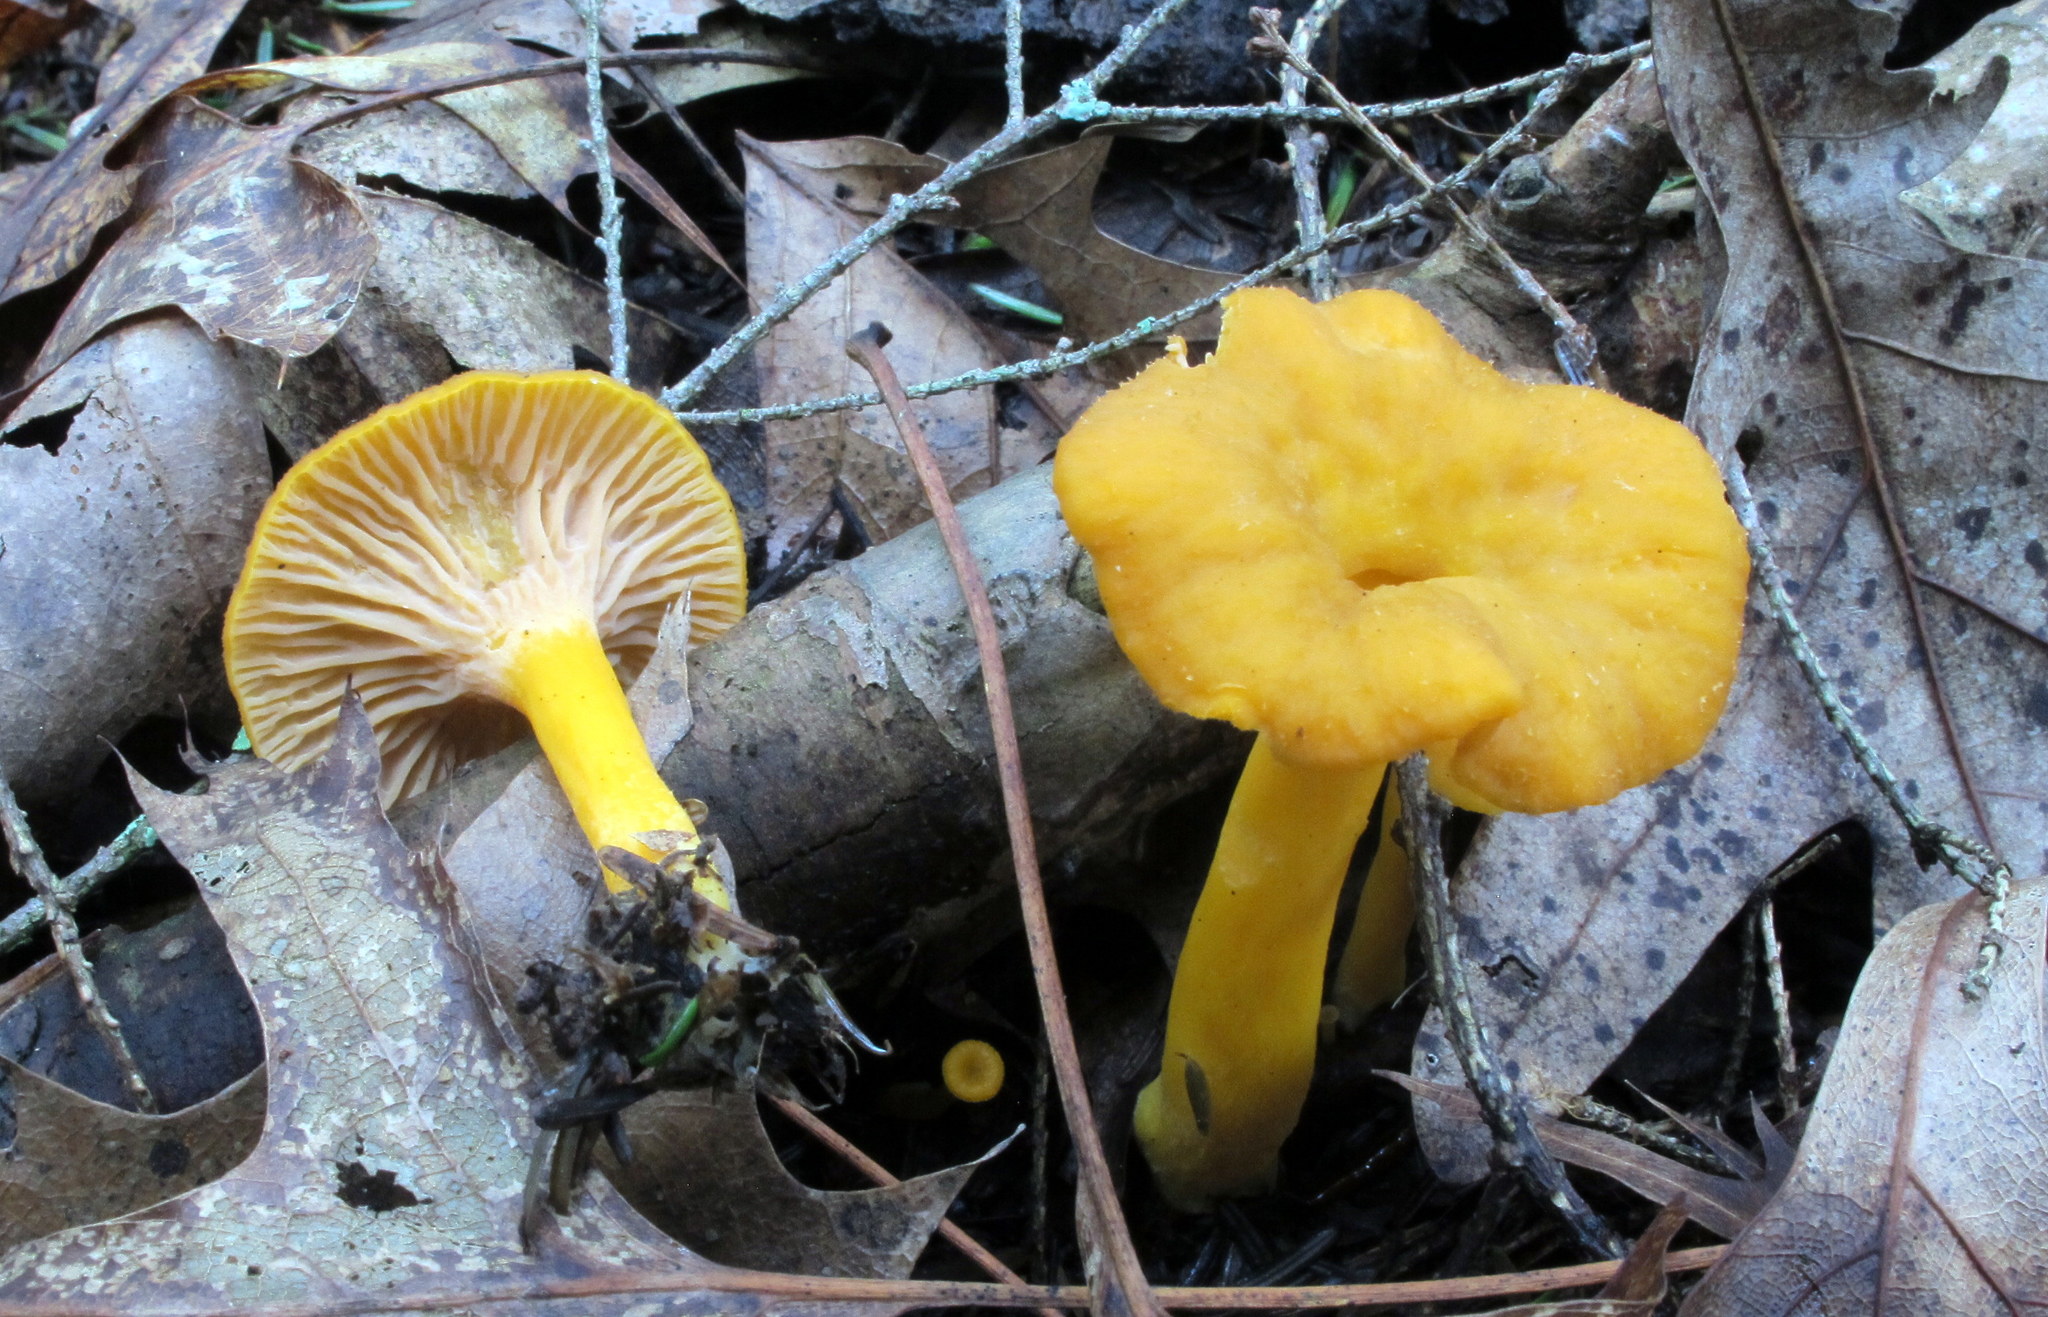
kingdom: Fungi
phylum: Basidiomycota
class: Agaricomycetes
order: Cantharellales
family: Hydnaceae
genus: Craterellus
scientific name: Craterellus ignicolor
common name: Flame chanterelle
